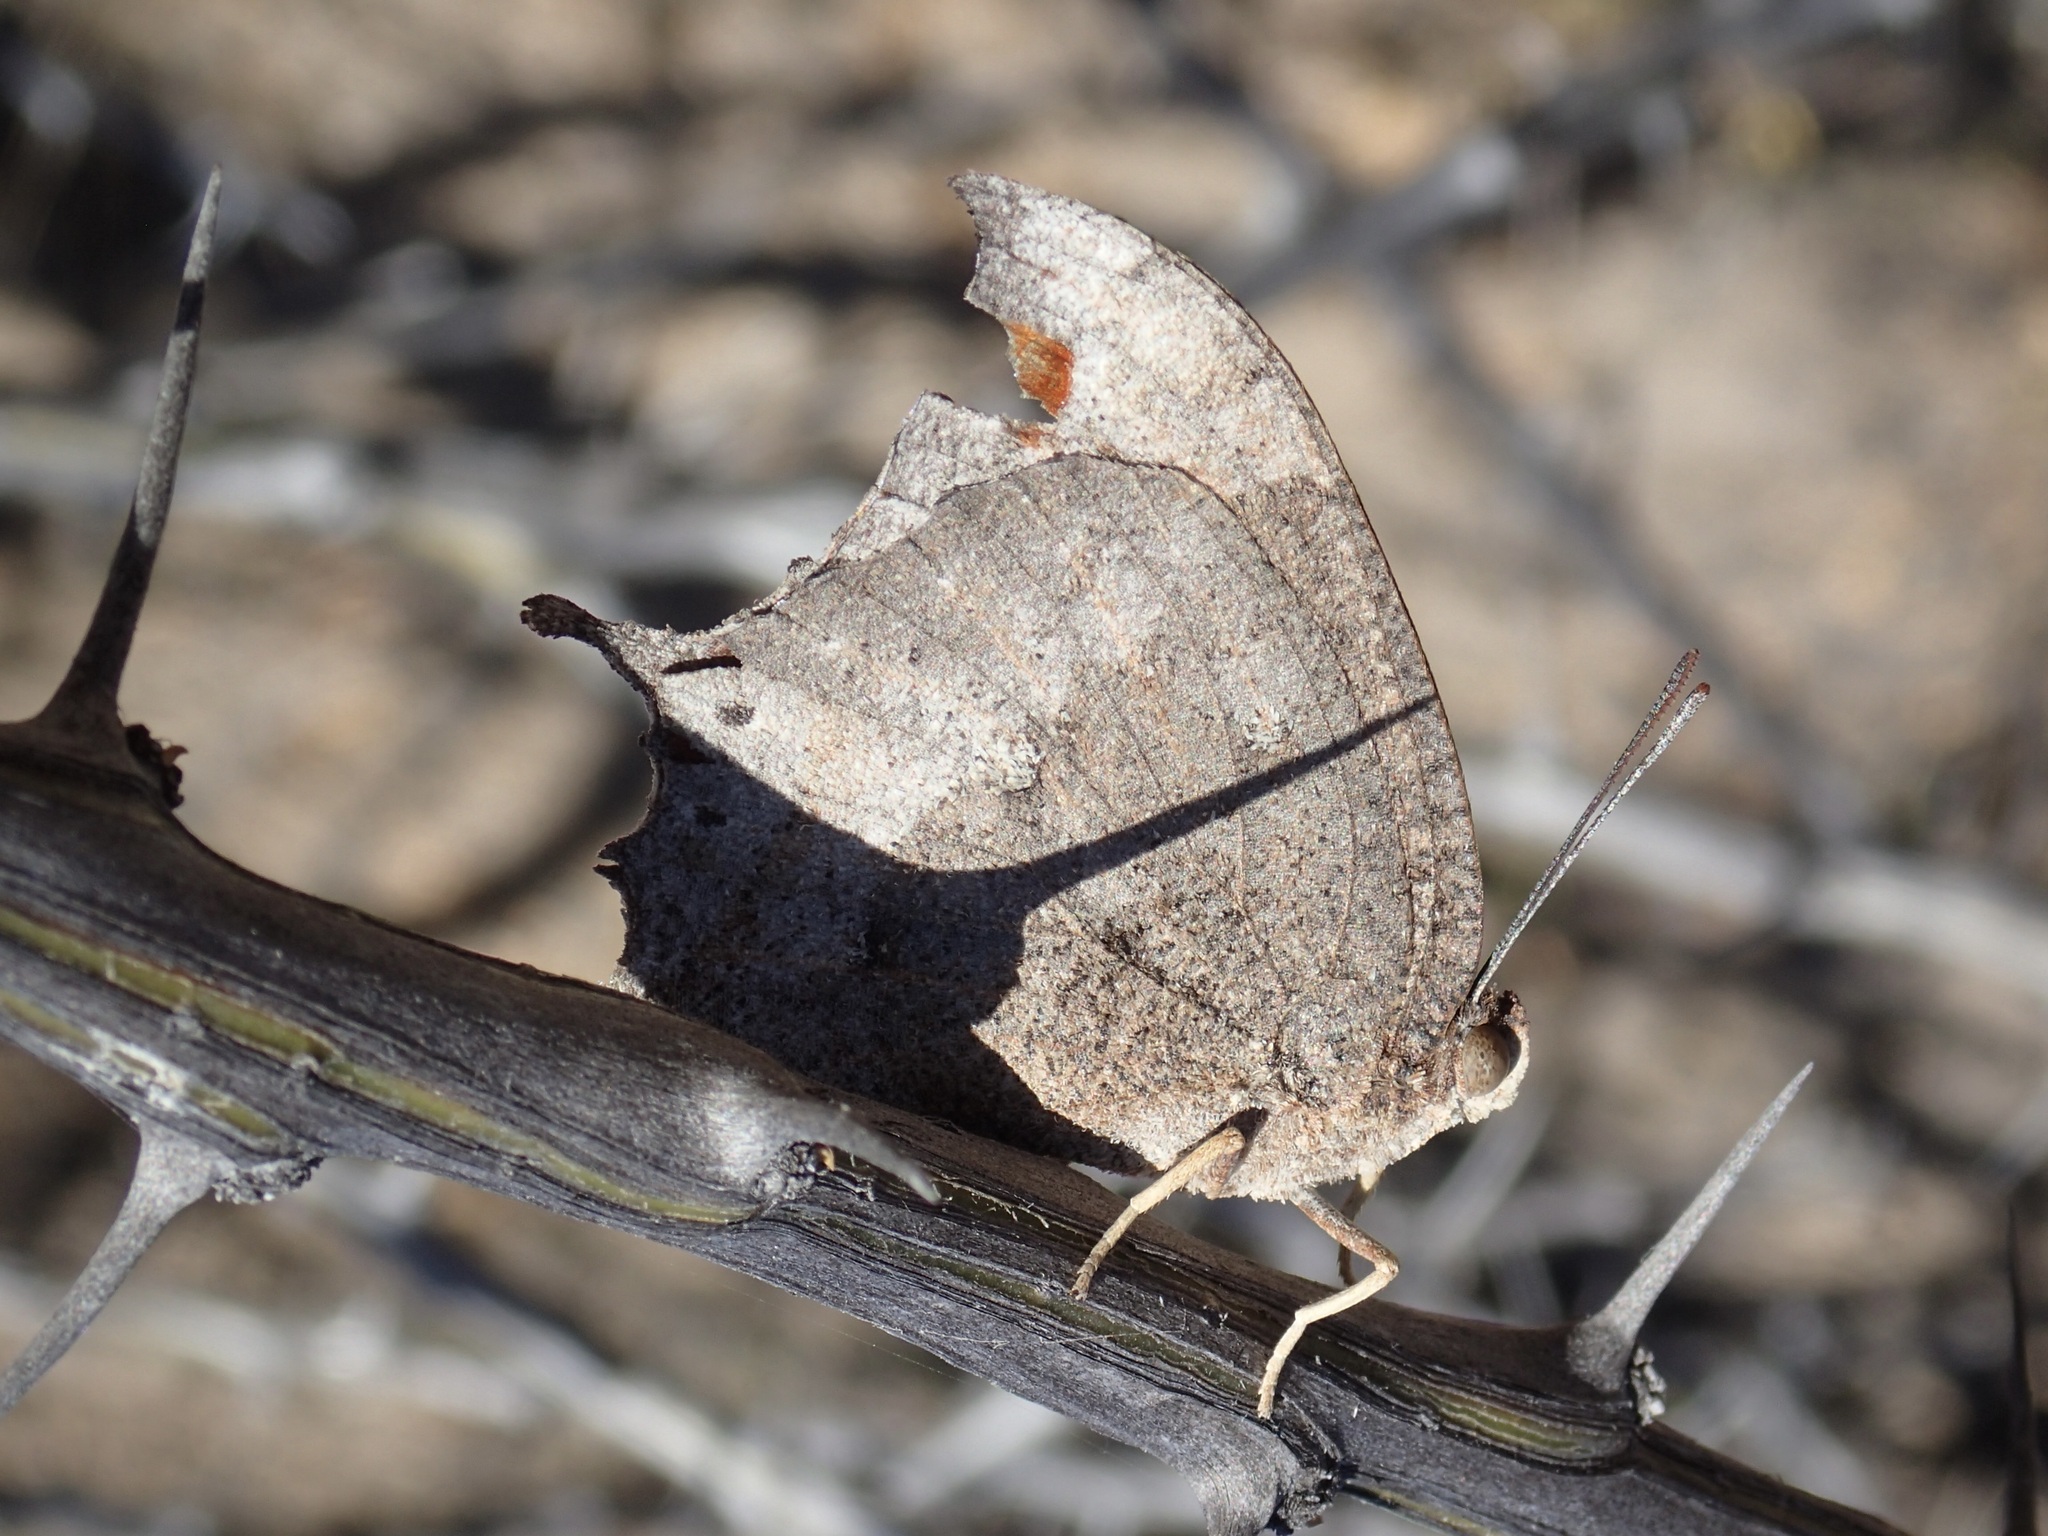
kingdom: Animalia
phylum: Arthropoda
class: Insecta
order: Lepidoptera
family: Nymphalidae
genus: Anaea
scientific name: Anaea aidea
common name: Tropical leafwing
